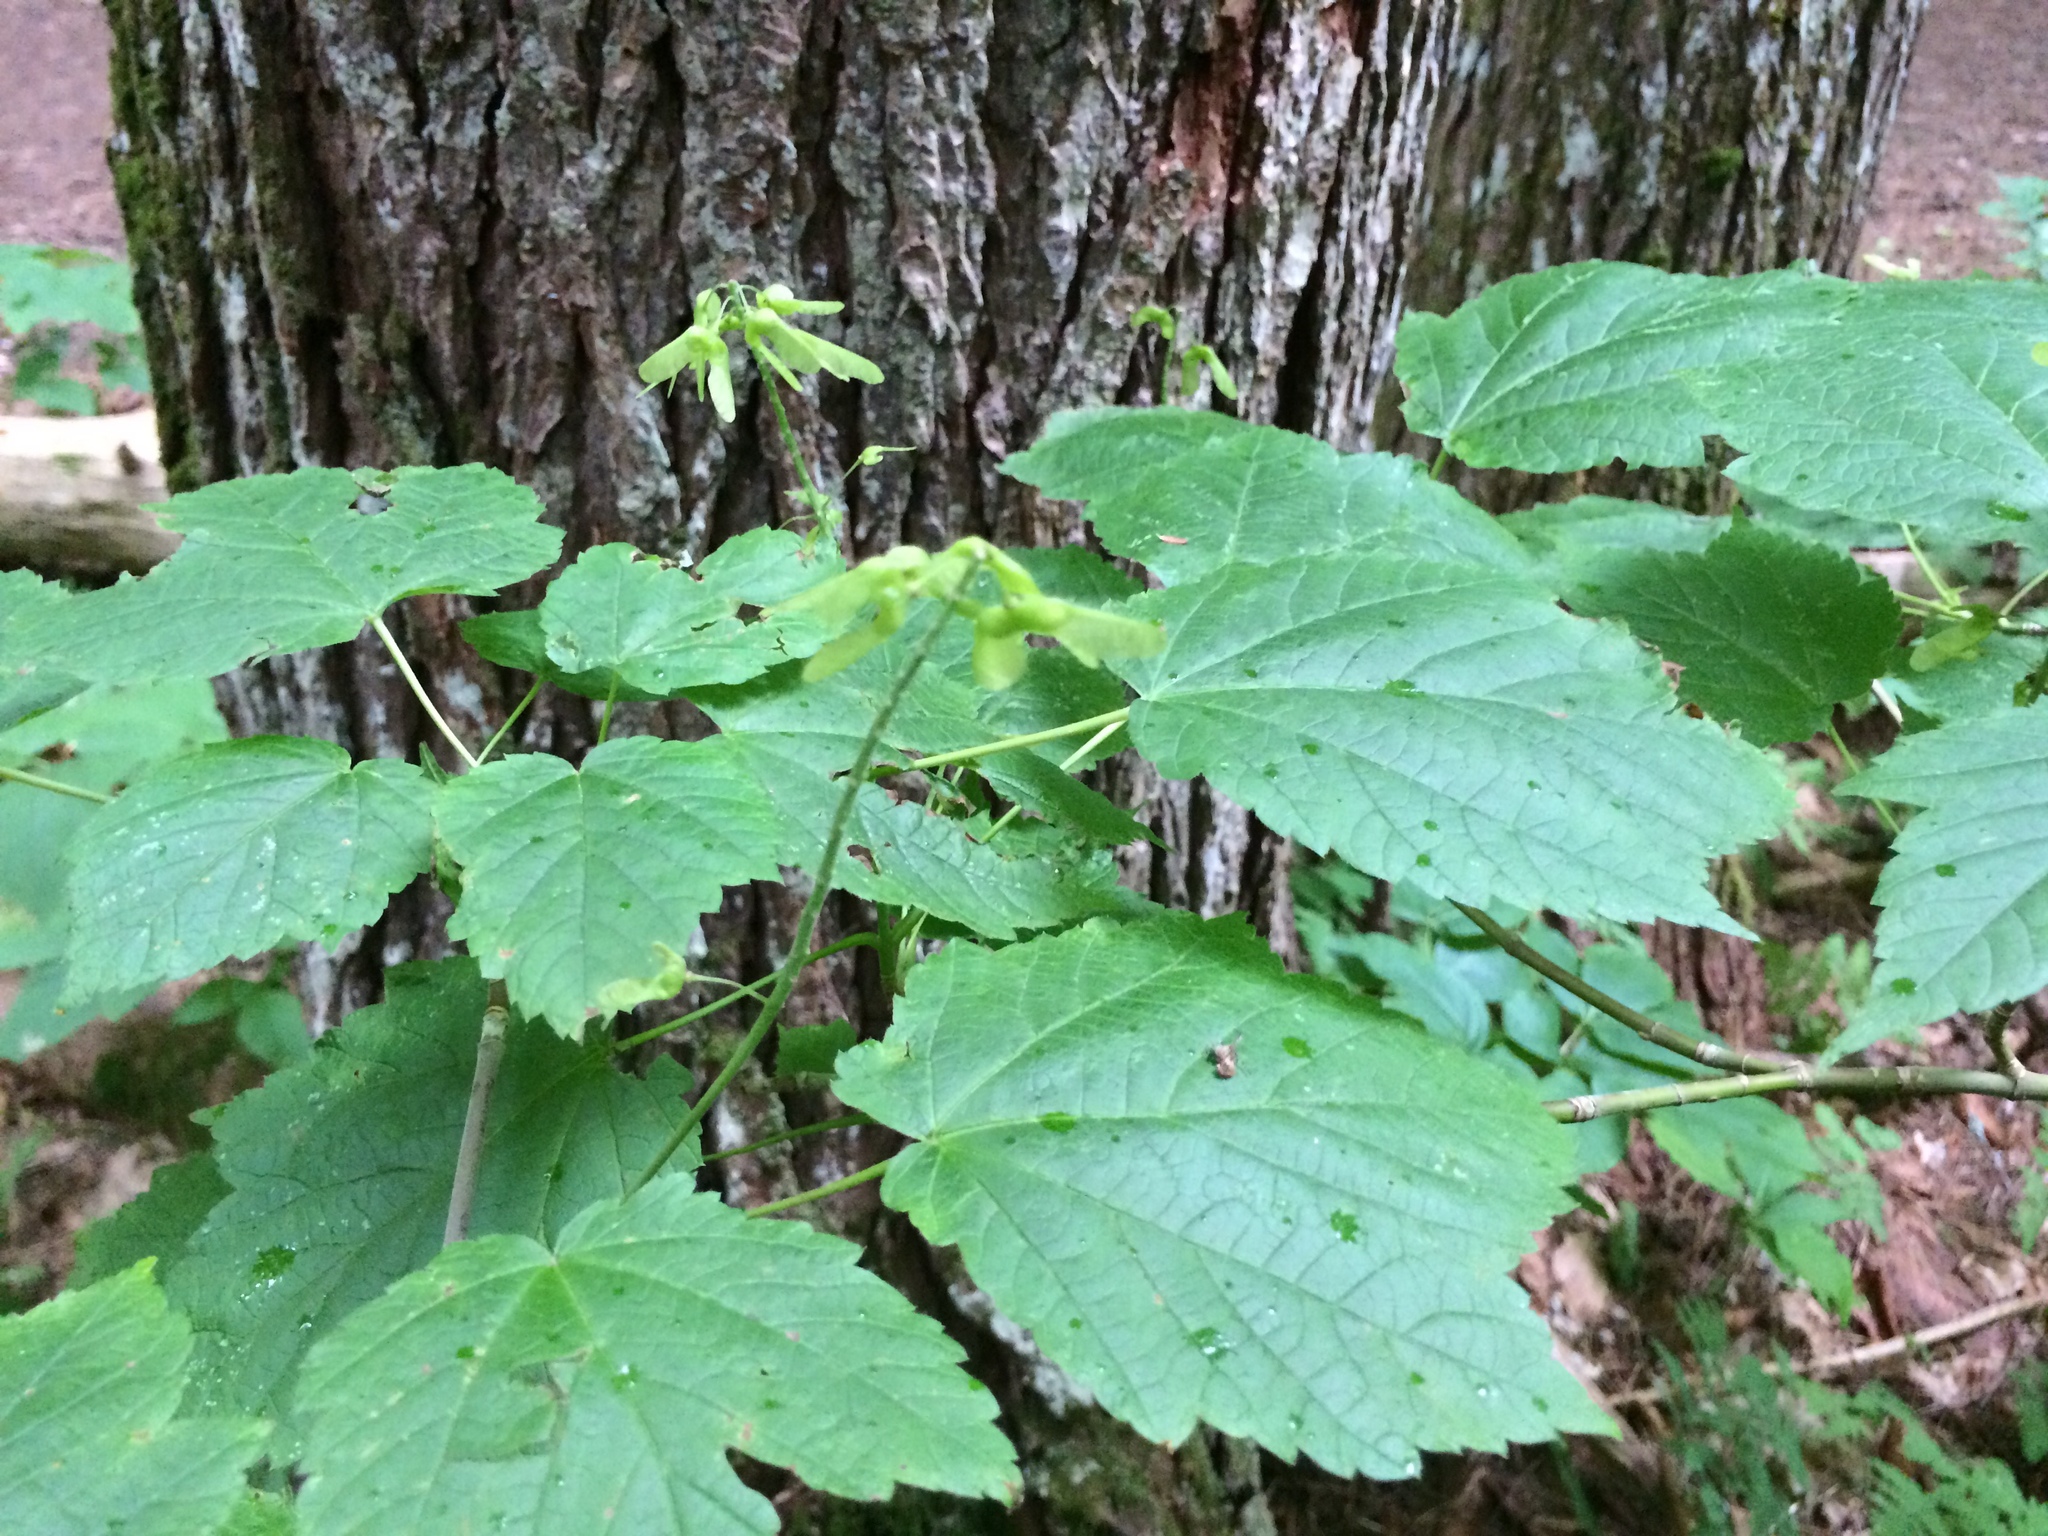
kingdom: Plantae
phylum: Tracheophyta
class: Magnoliopsida
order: Sapindales
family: Sapindaceae
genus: Acer
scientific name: Acer spicatum
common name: Mountain maple
